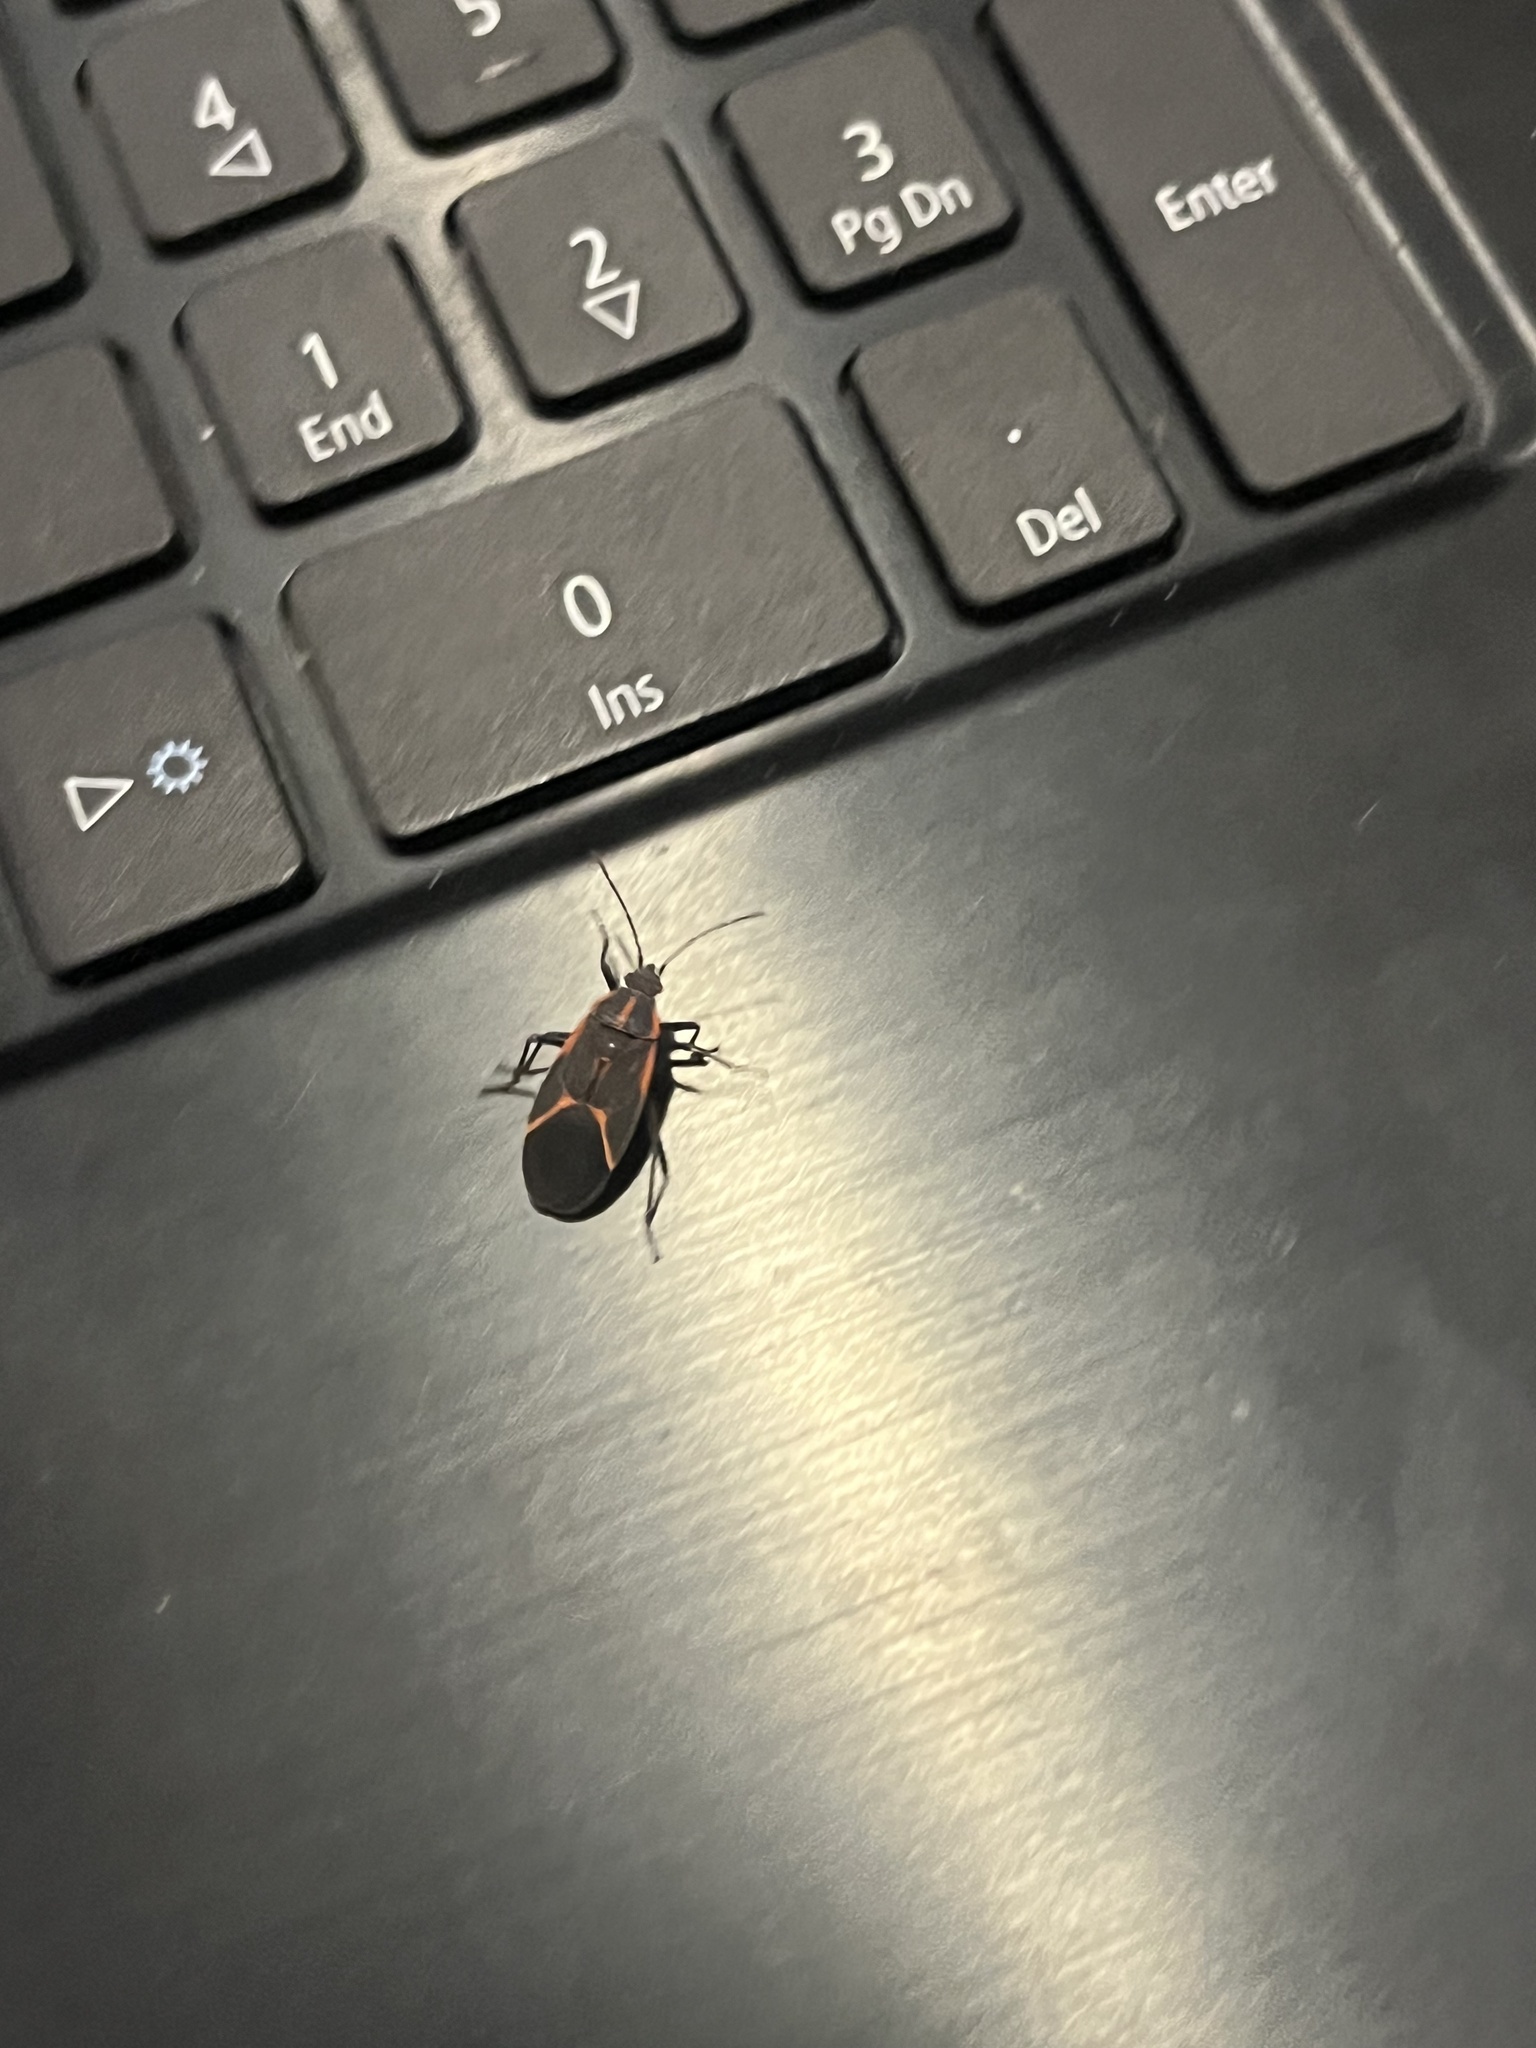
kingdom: Animalia
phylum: Arthropoda
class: Insecta
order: Hemiptera
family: Rhopalidae
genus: Boisea
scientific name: Boisea trivittata
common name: Boxelder bug
